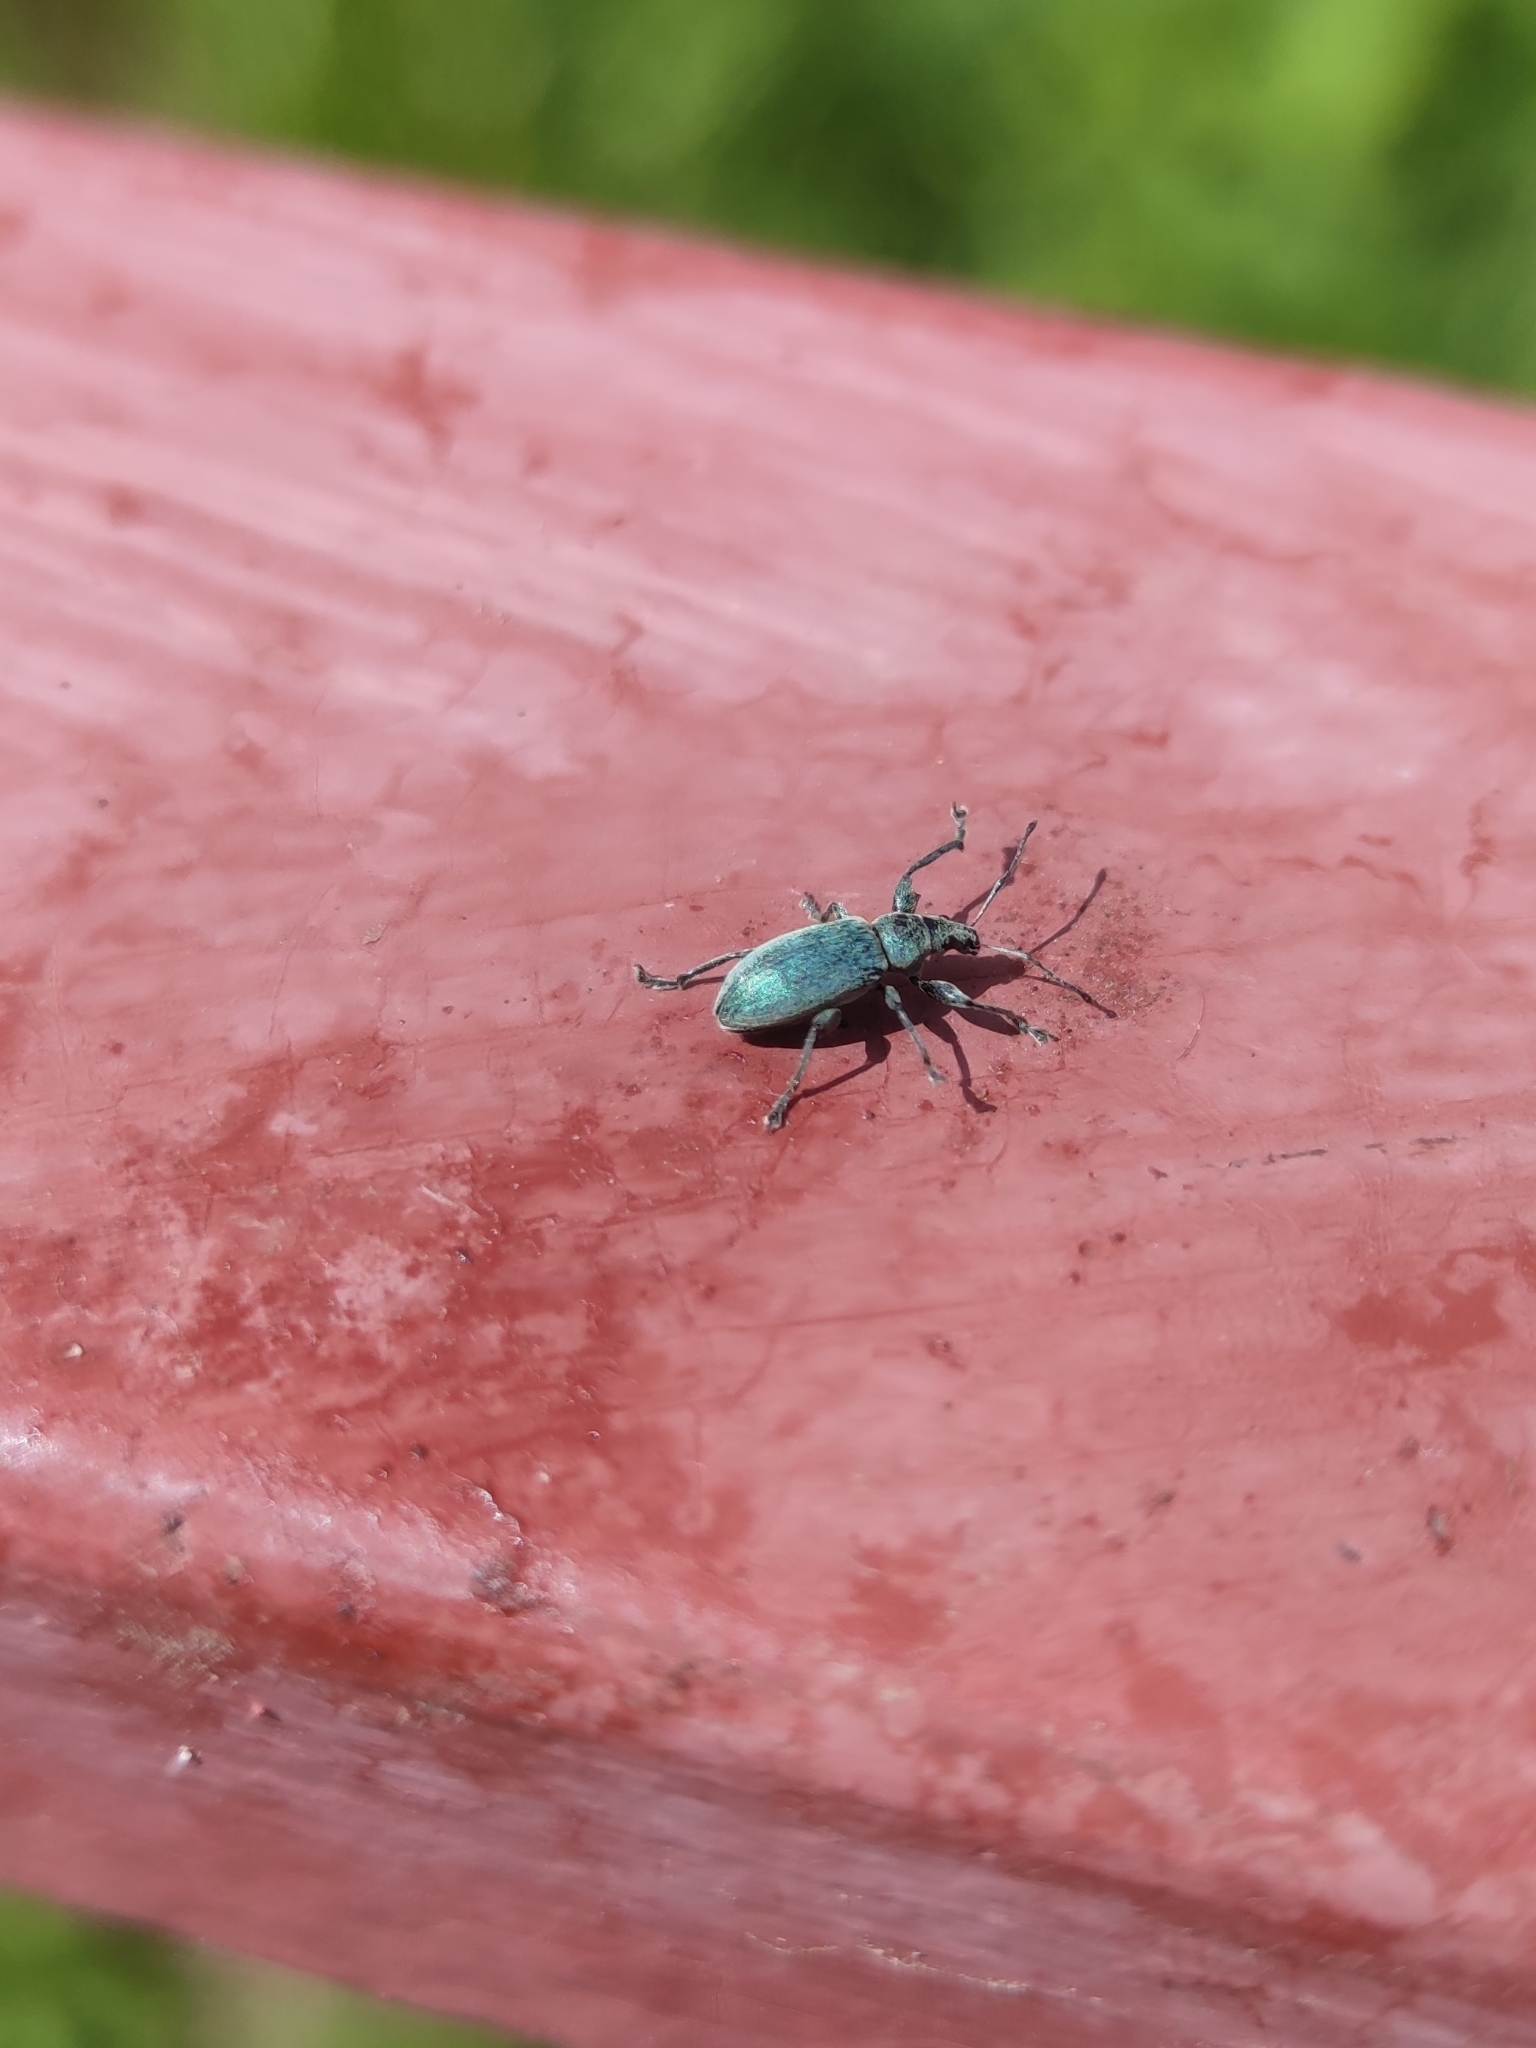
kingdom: Animalia
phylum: Arthropoda
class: Insecta
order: Coleoptera
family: Curculionidae
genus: Phyllobius
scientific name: Phyllobius pomaceus
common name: Green nettle weevil
